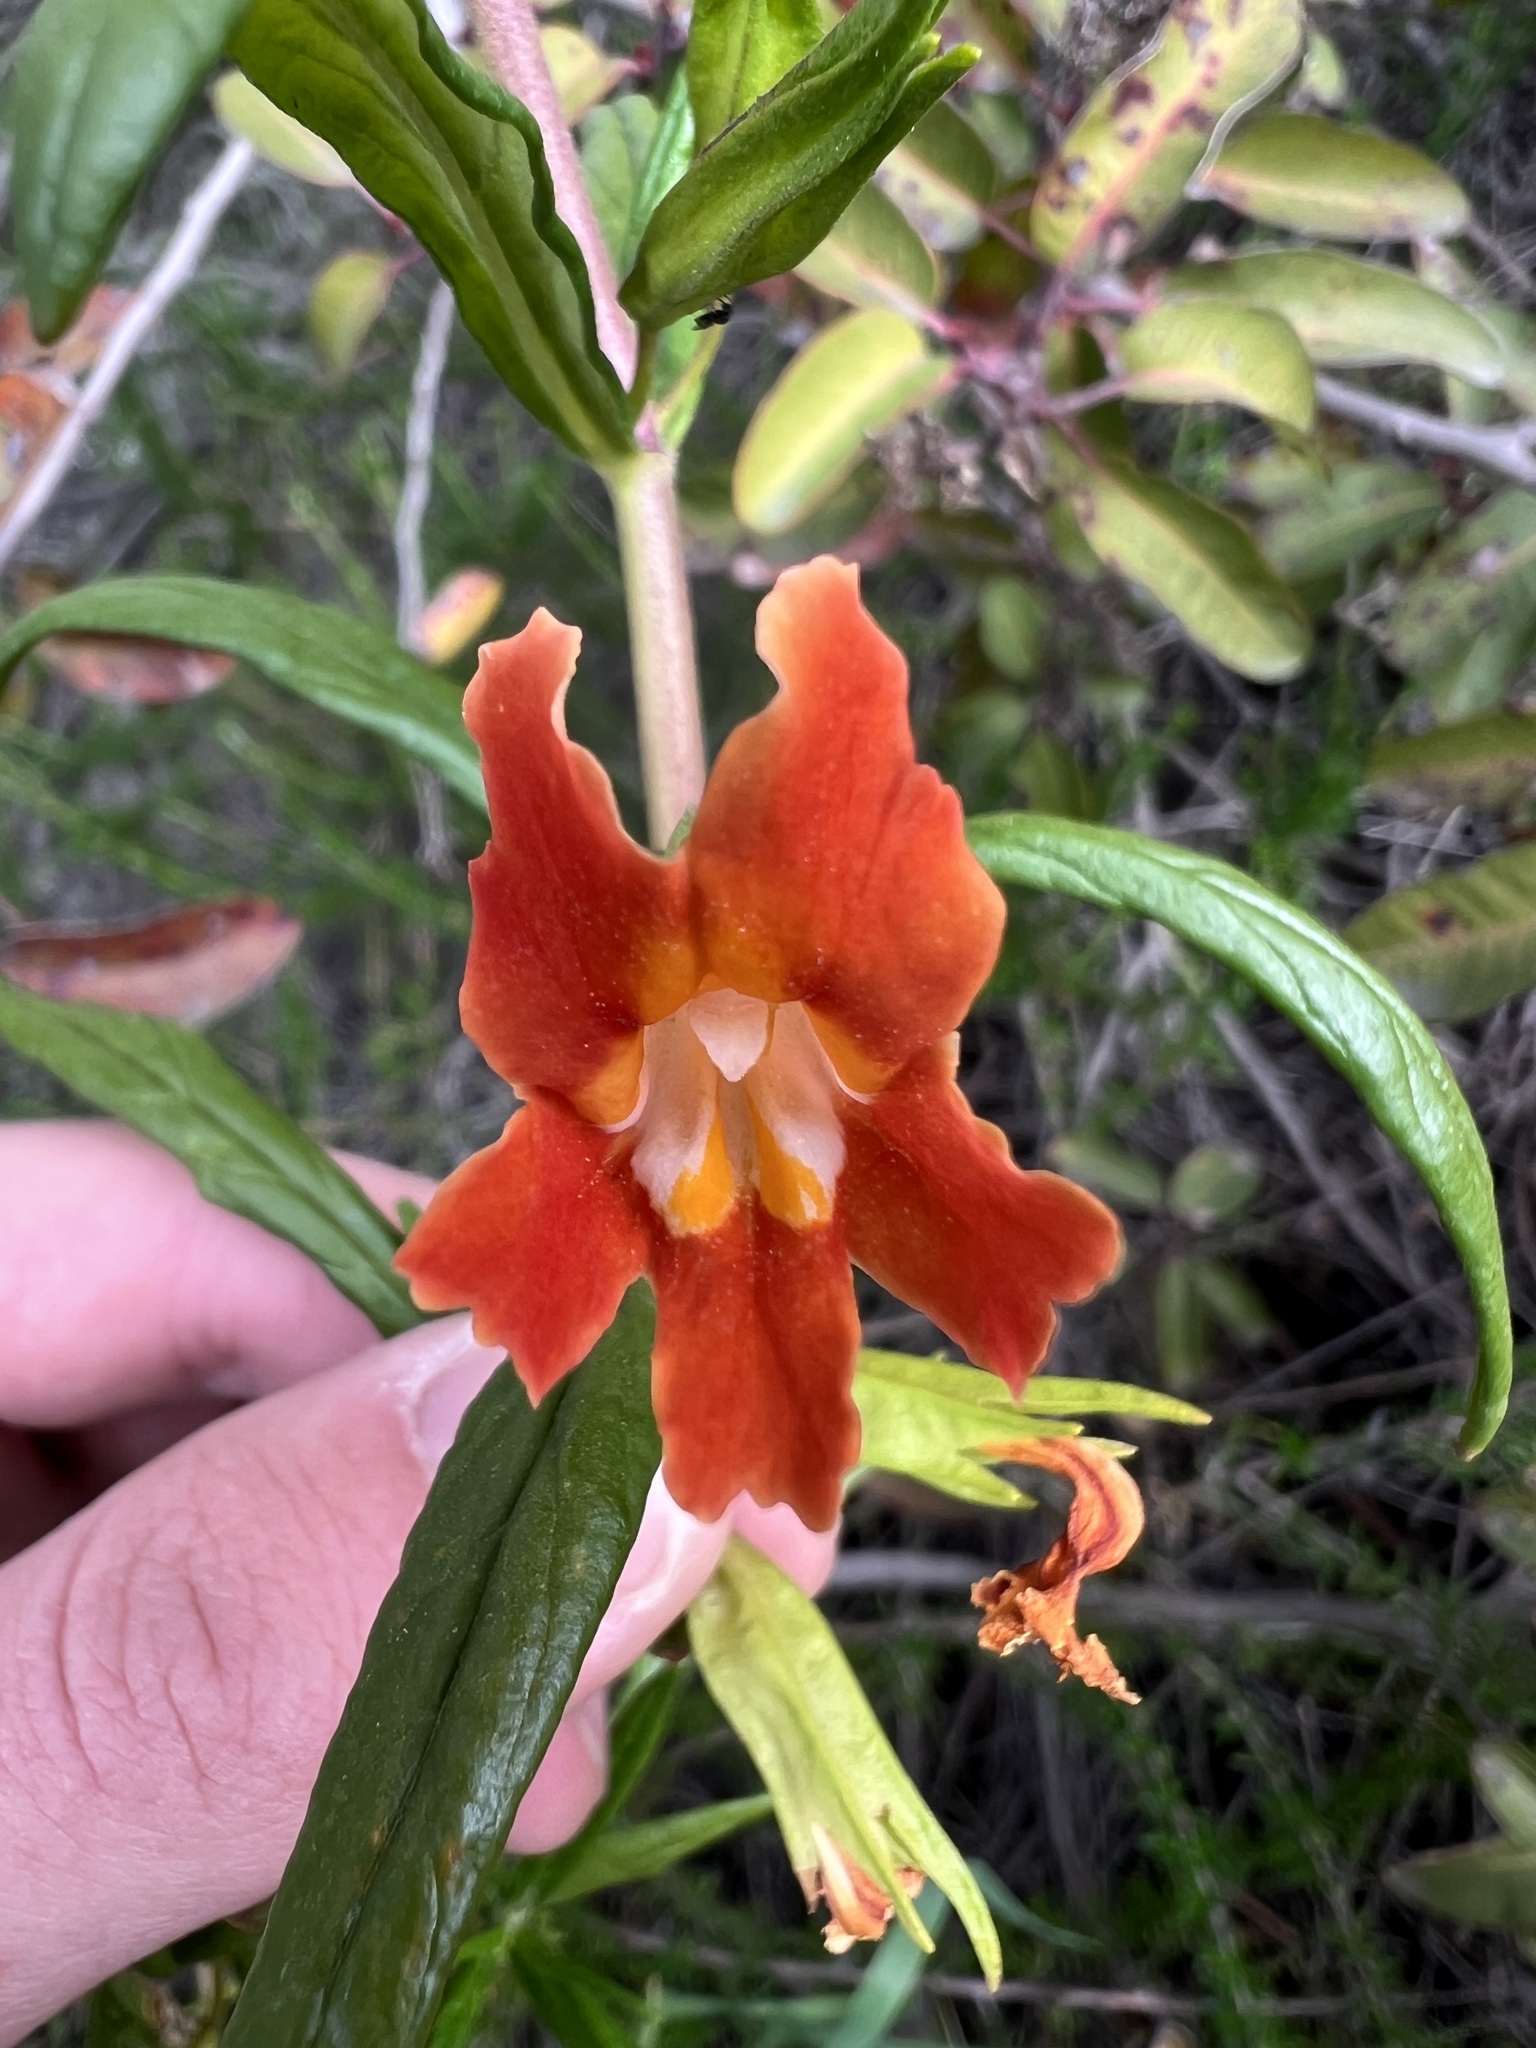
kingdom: Plantae
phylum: Tracheophyta
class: Magnoliopsida
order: Lamiales
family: Phrymaceae
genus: Diplacus
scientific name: Diplacus puniceus
